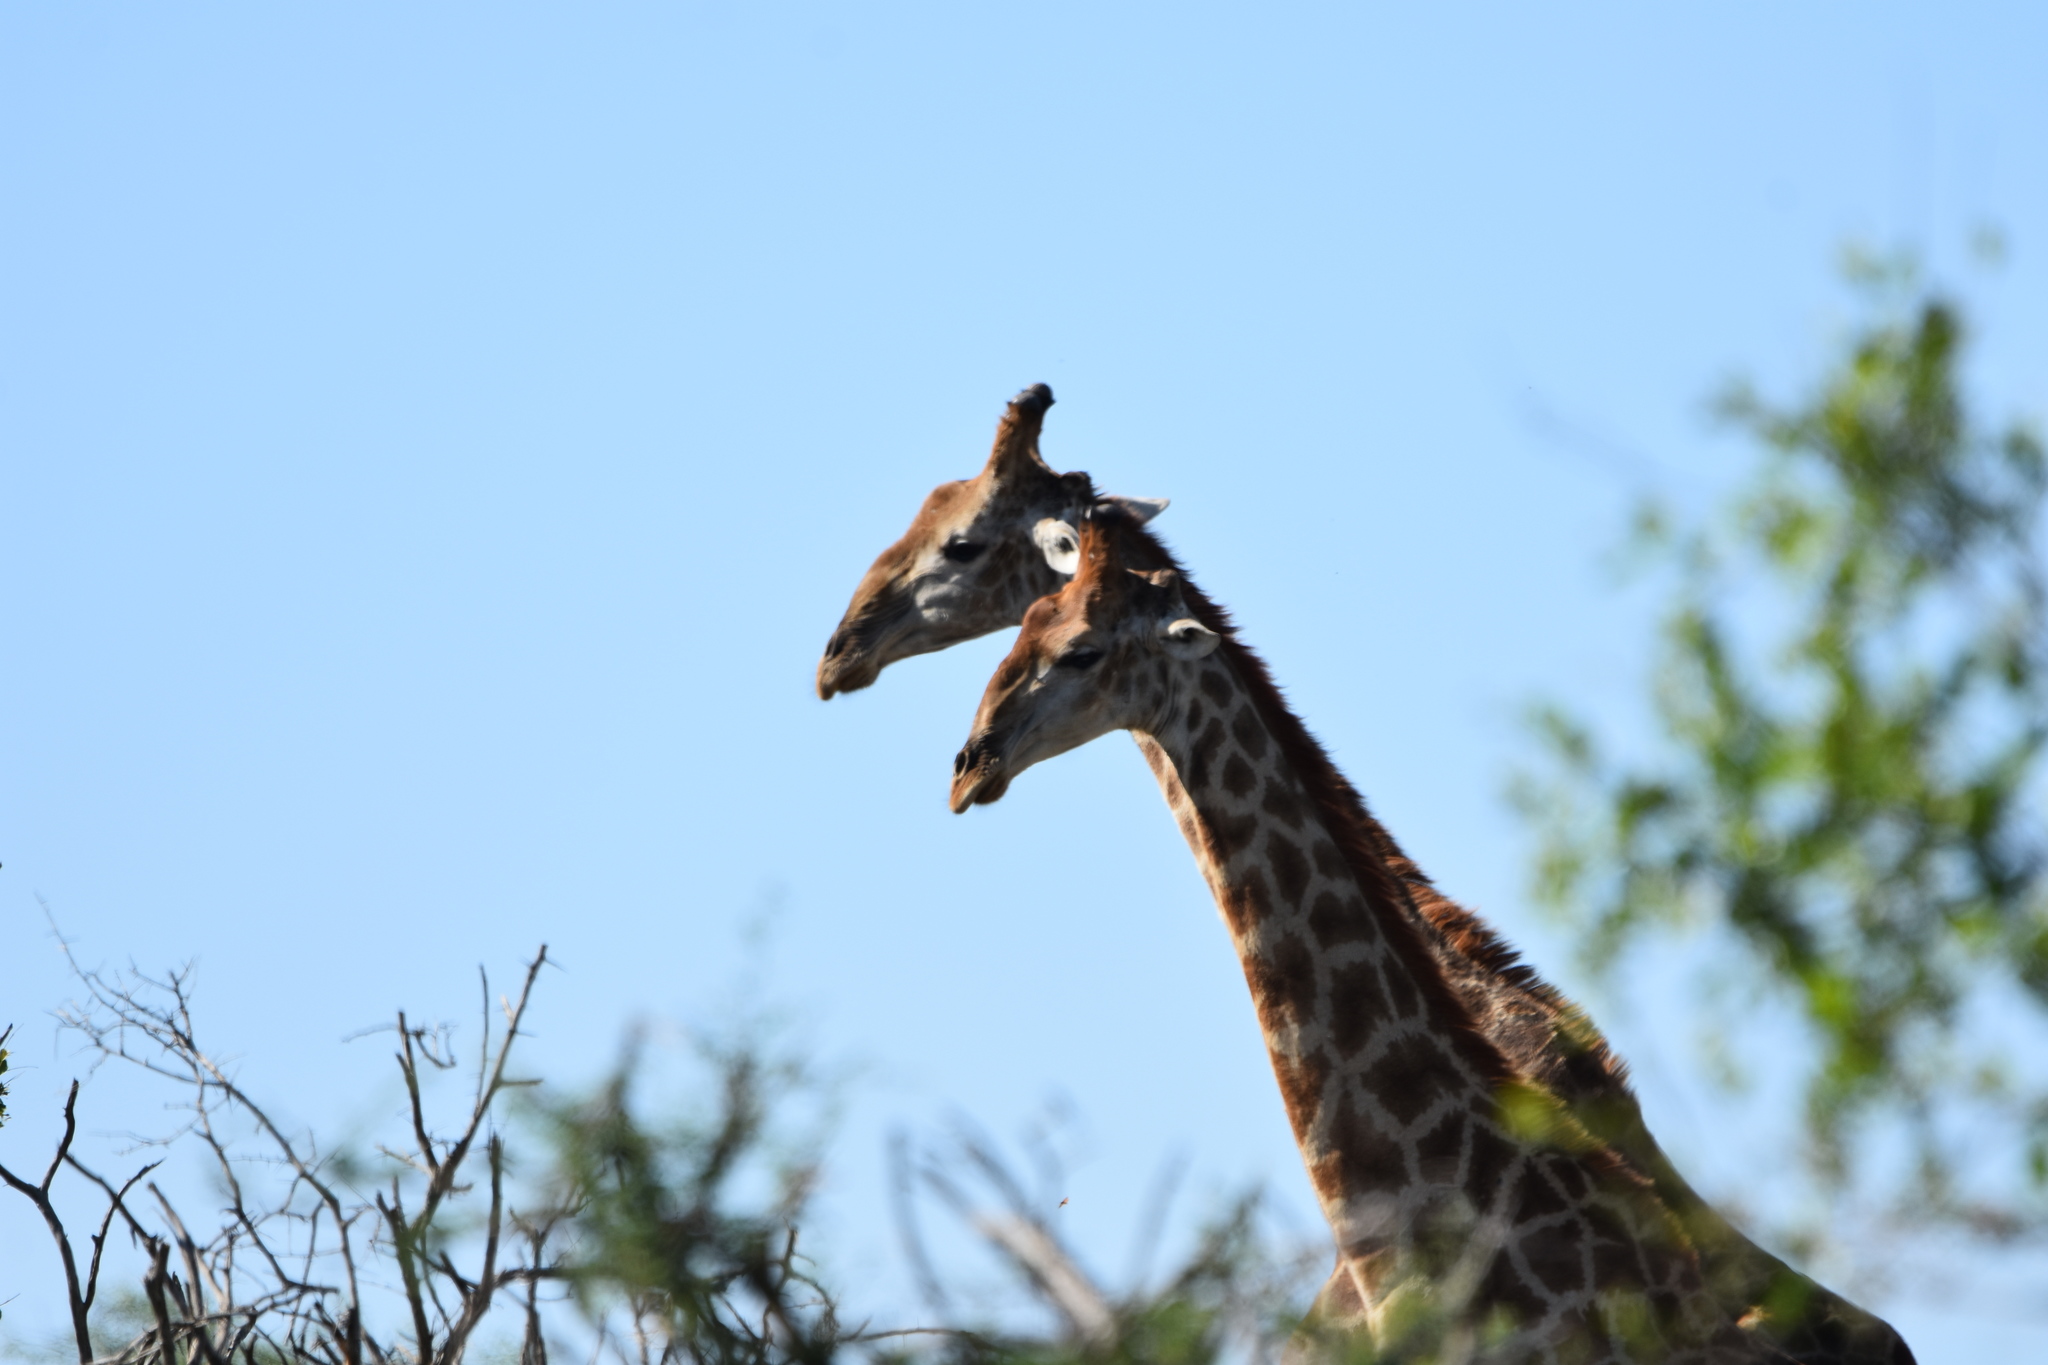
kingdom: Animalia
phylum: Chordata
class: Mammalia
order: Artiodactyla
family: Giraffidae
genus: Giraffa
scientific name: Giraffa giraffa
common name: Southern giraffe
